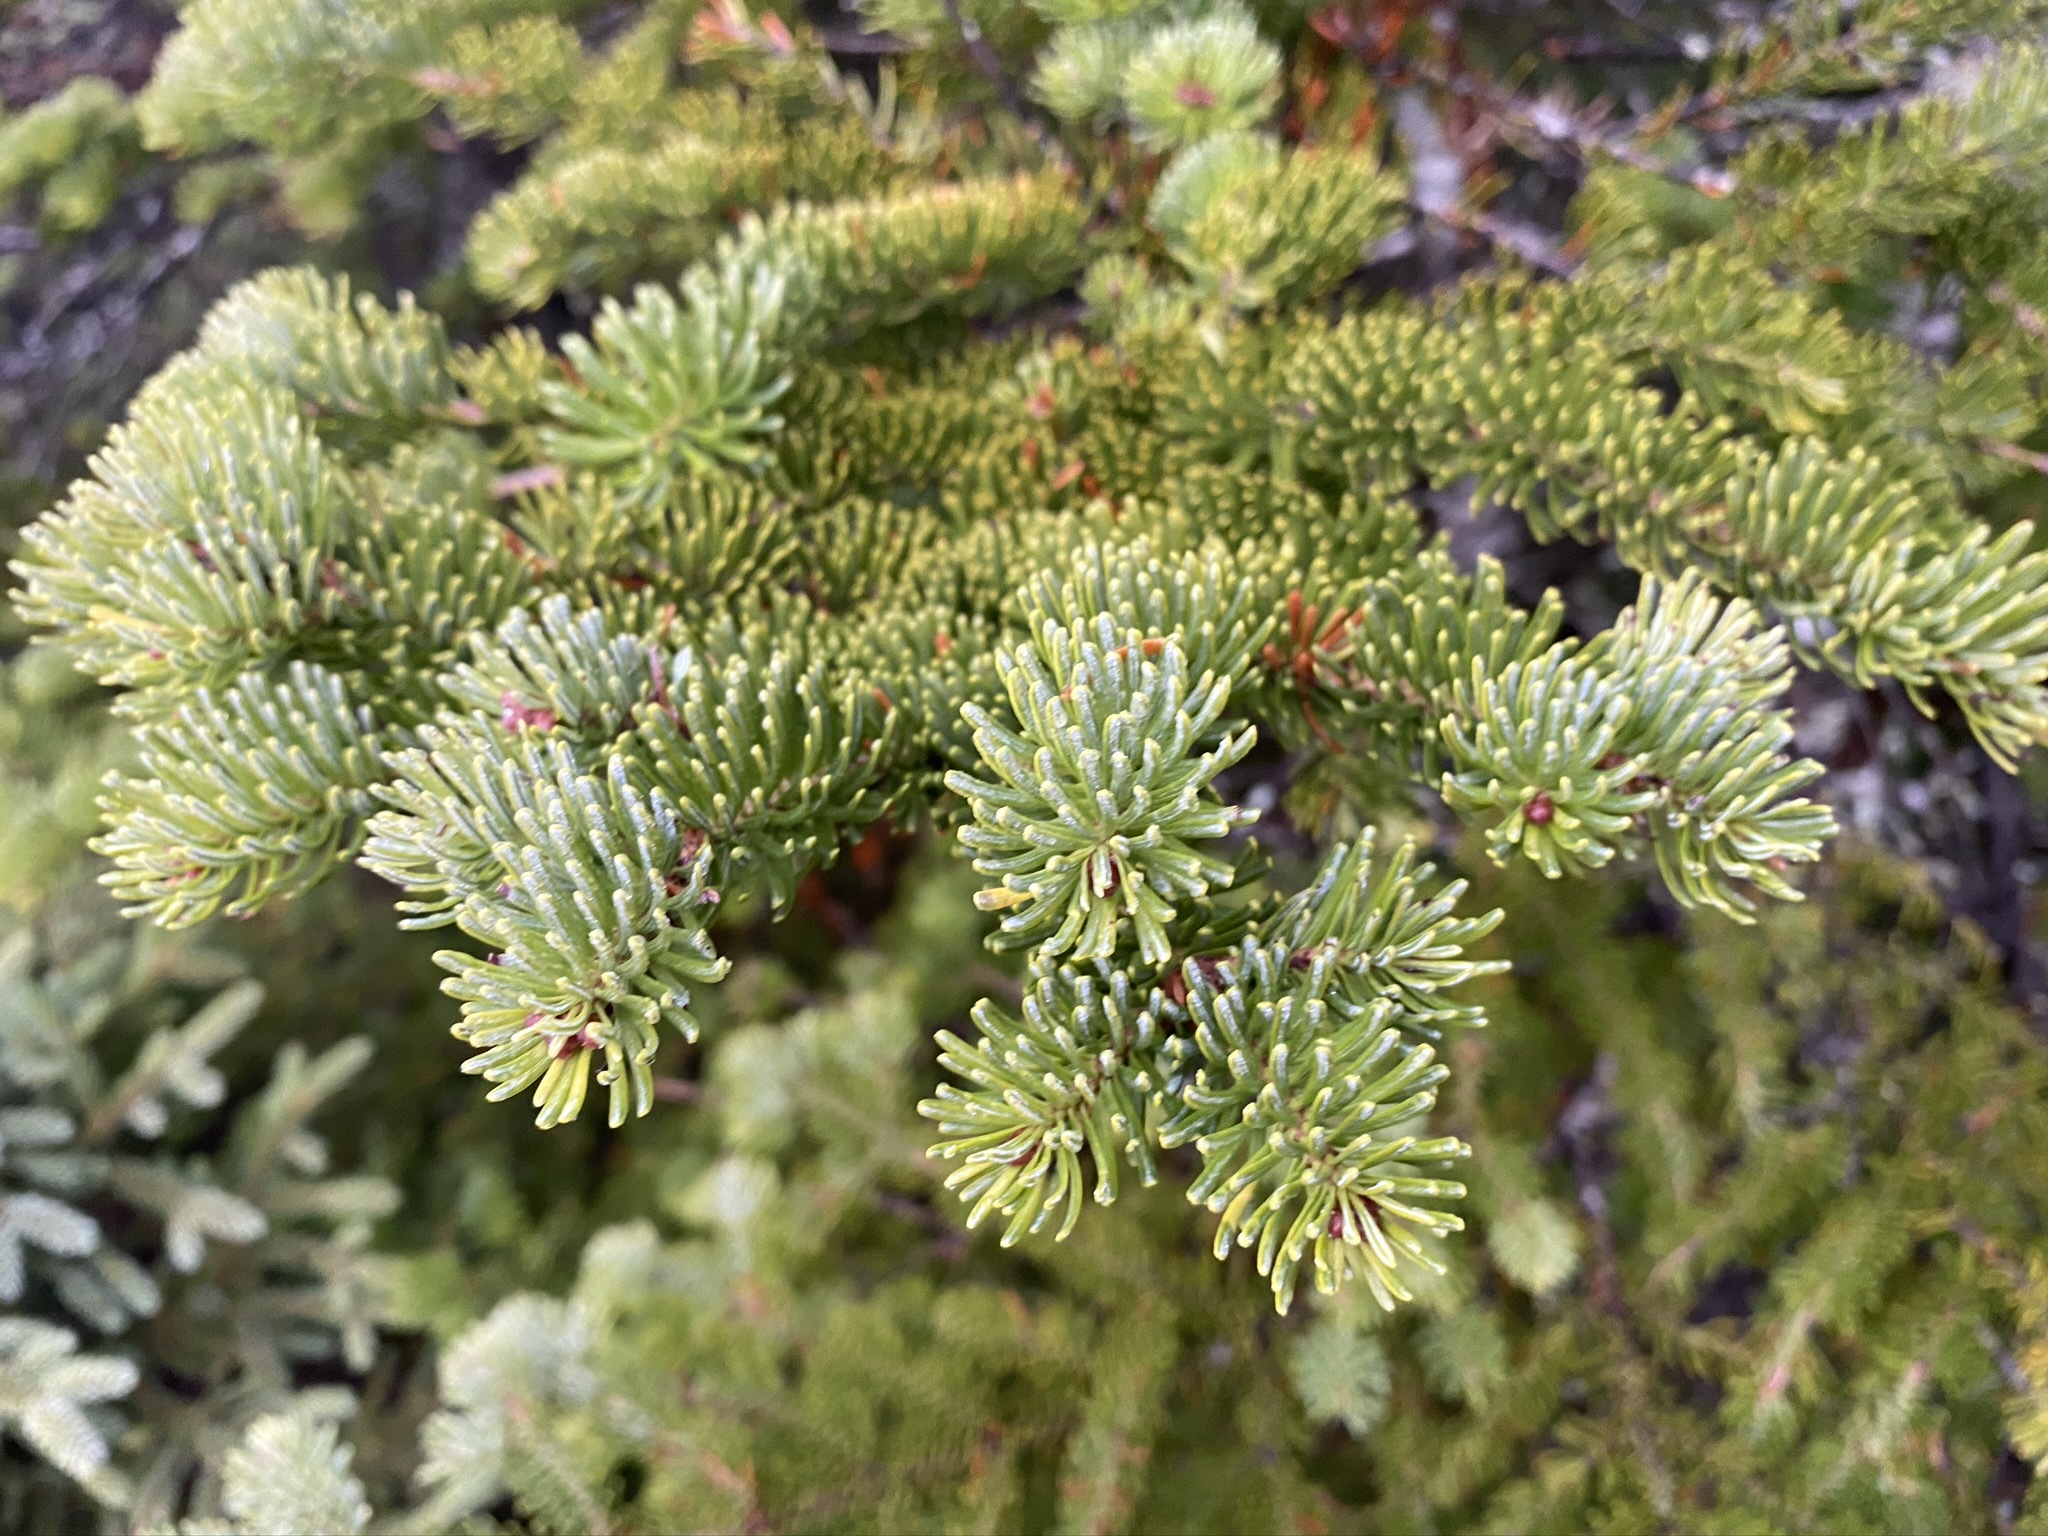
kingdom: Plantae
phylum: Tracheophyta
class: Pinopsida
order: Pinales
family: Pinaceae
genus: Abies
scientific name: Abies balsamea
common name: Balsam fir
